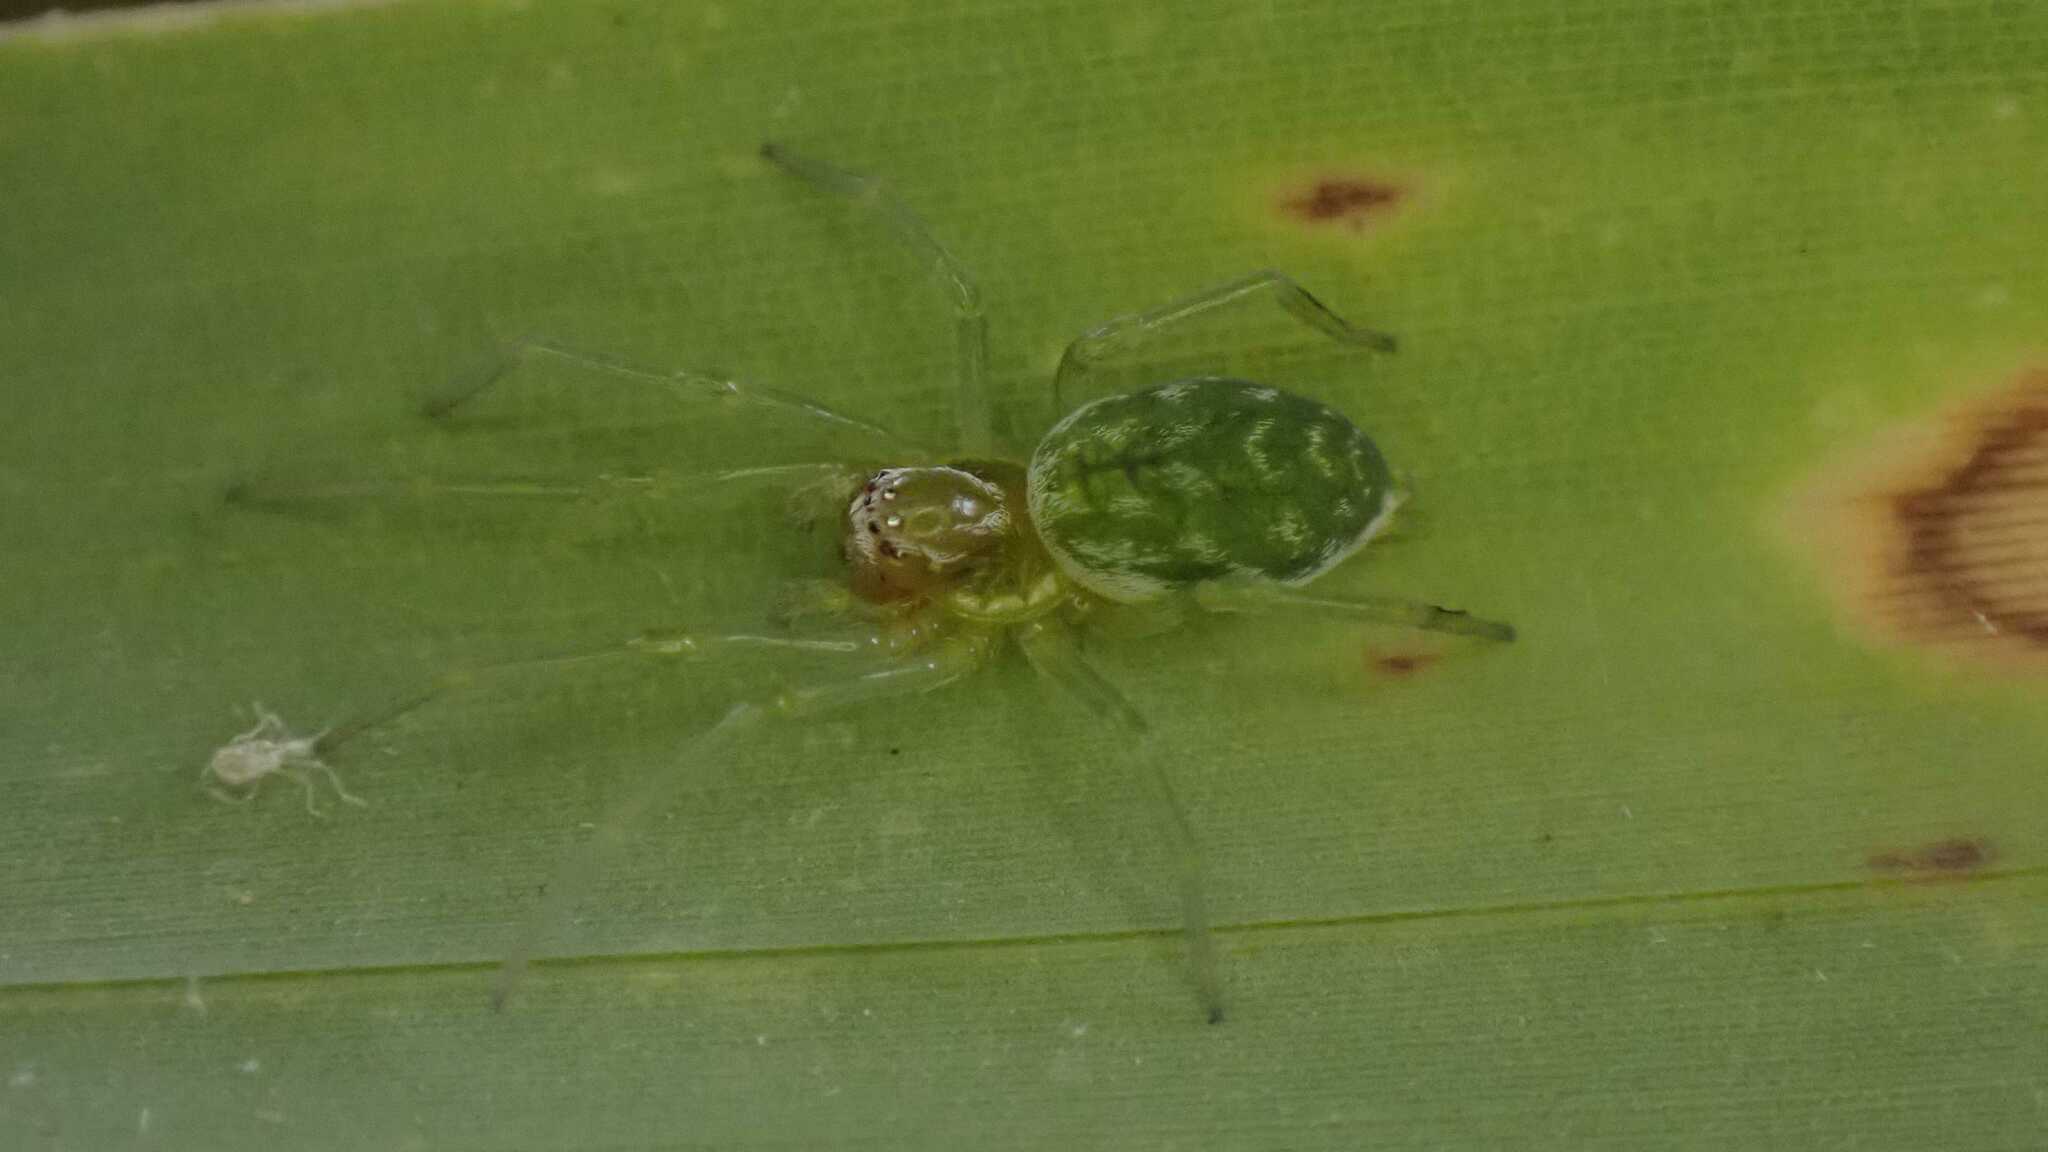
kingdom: Animalia
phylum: Arthropoda
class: Arachnida
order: Araneae
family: Dictynidae
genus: Nigma
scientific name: Nigma walckenaeri
